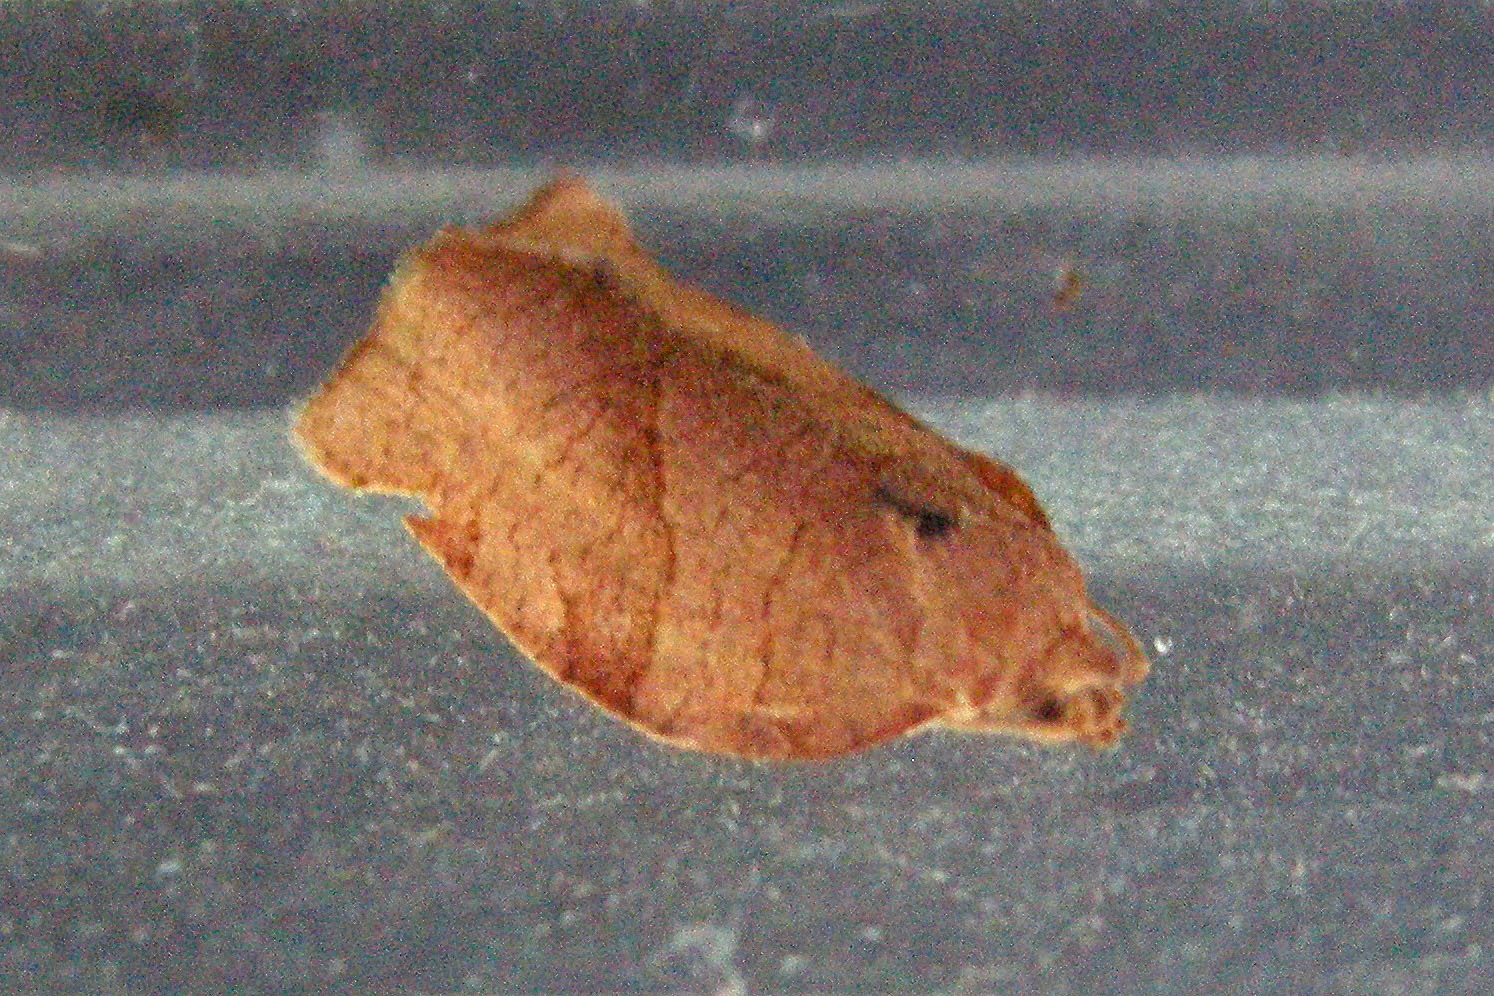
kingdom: Animalia
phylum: Arthropoda
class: Insecta
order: Lepidoptera
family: Tortricidae
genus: Choristoneura
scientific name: Choristoneura rosaceana
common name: Oblique-banded leafroller moth
